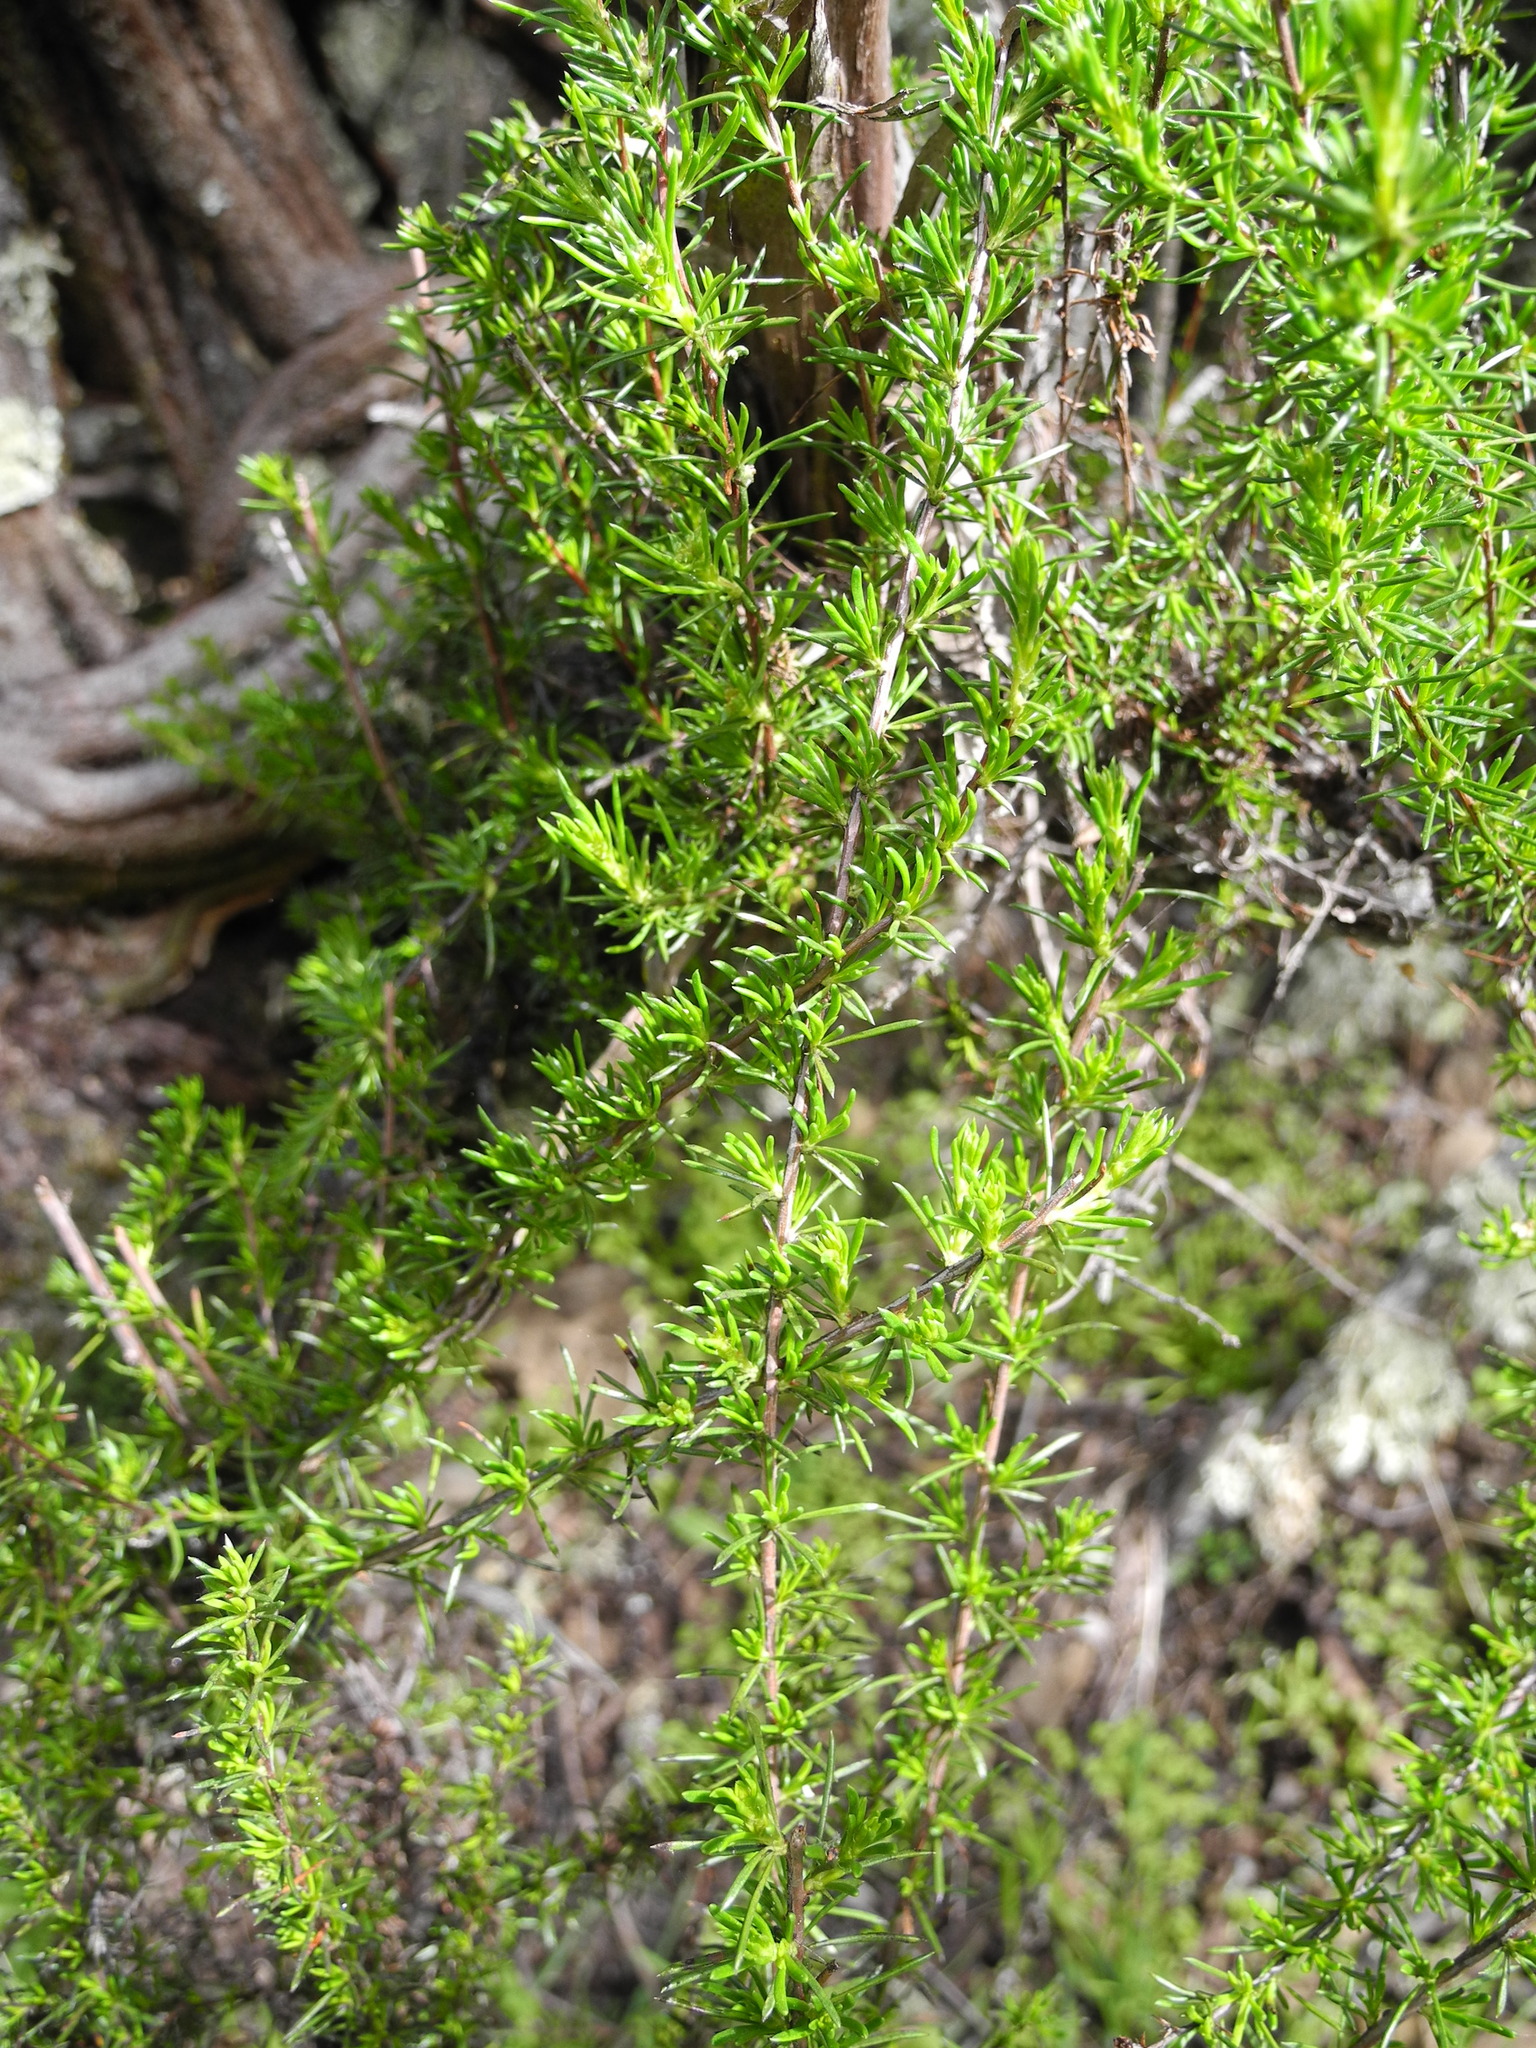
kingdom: Plantae
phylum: Tracheophyta
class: Magnoliopsida
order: Rosales
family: Rosaceae
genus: Adenostoma
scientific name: Adenostoma fasciculatum
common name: Chamise
